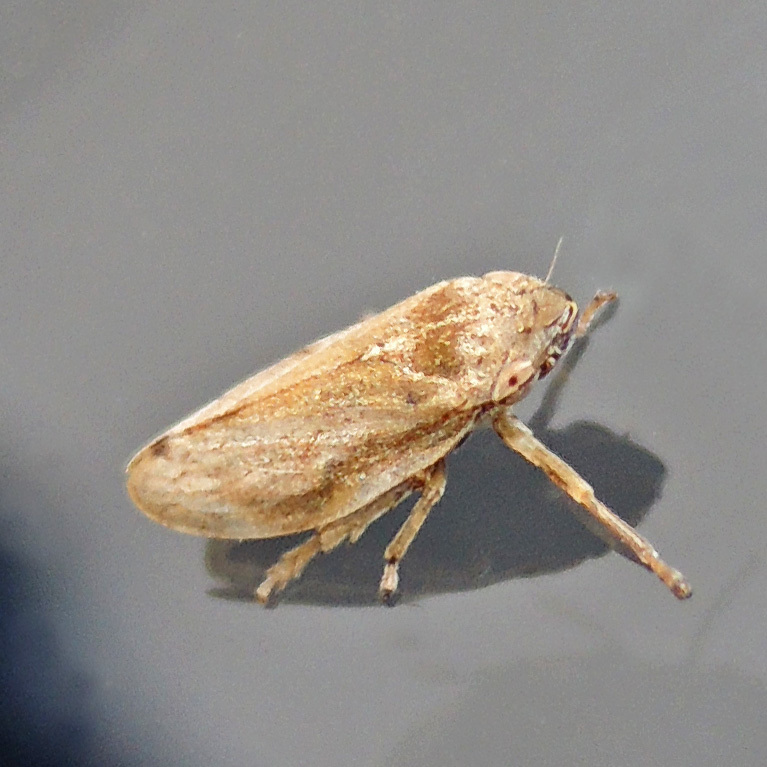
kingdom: Animalia
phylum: Arthropoda
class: Insecta
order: Hemiptera
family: Aphrophoridae
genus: Philaenus
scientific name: Philaenus spumarius
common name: Meadow spittlebug
